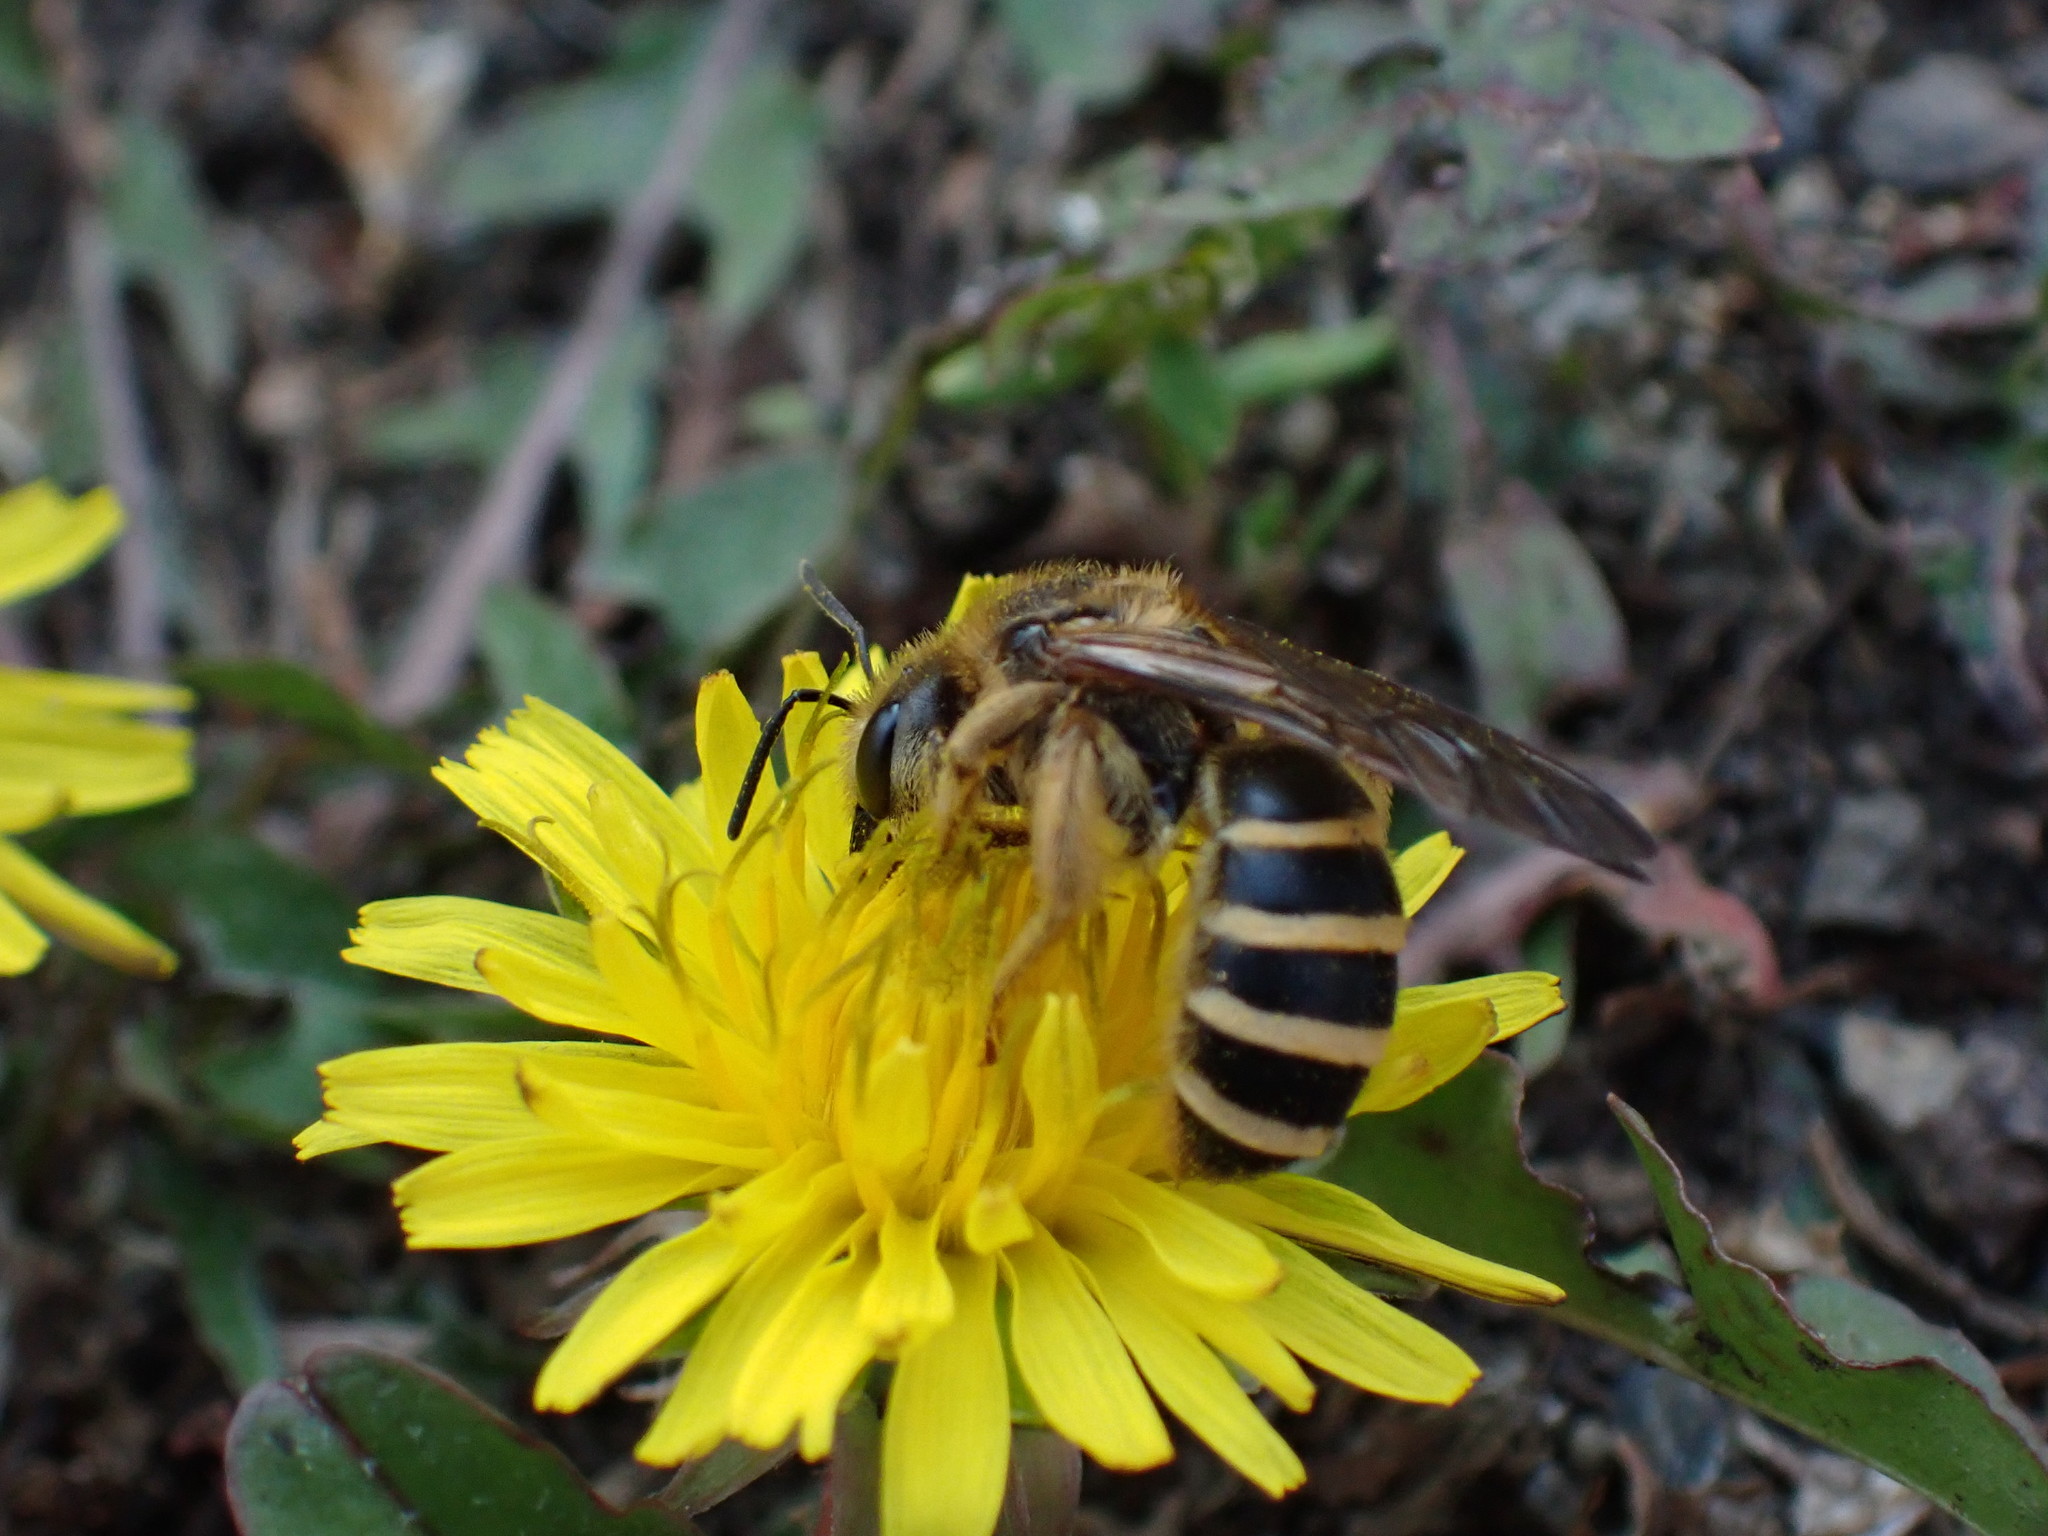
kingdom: Animalia
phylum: Arthropoda
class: Insecta
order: Hymenoptera
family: Halictidae
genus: Halictus
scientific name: Halictus farinosus
